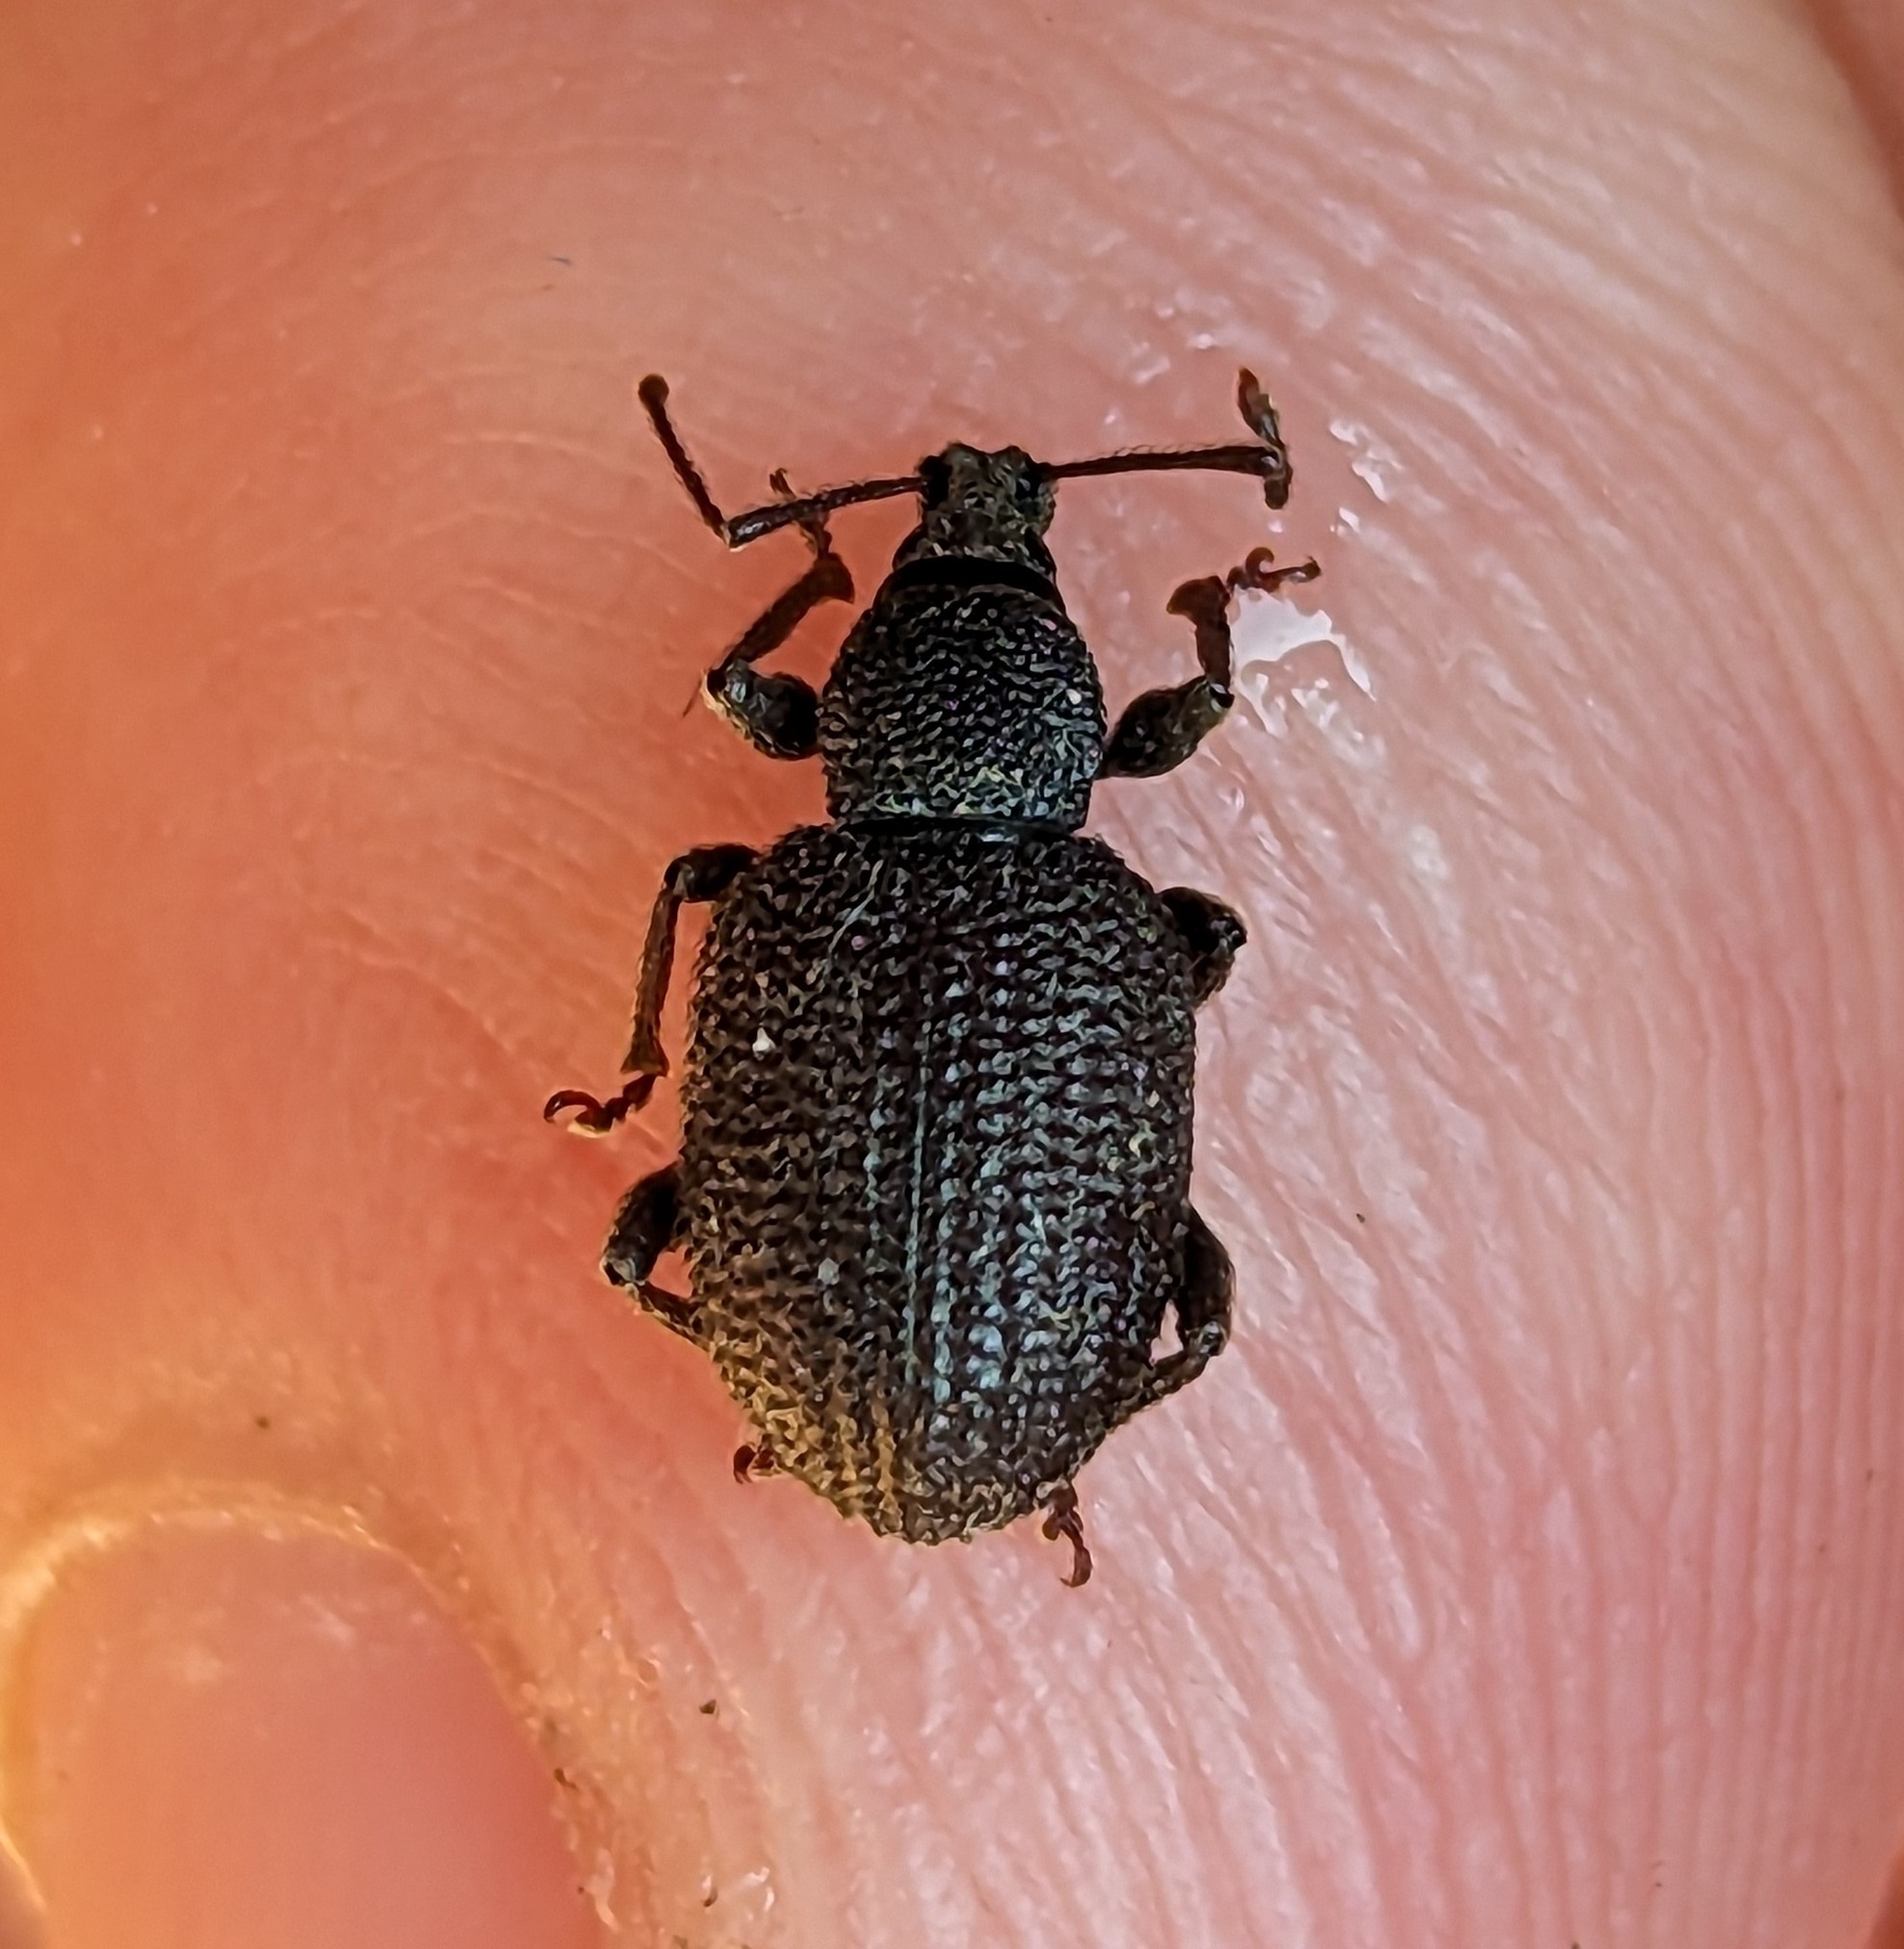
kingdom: Animalia
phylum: Arthropoda
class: Insecta
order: Coleoptera
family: Curculionidae
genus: Otiorhynchus
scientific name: Otiorhynchus rugosostriatus
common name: Weevil
